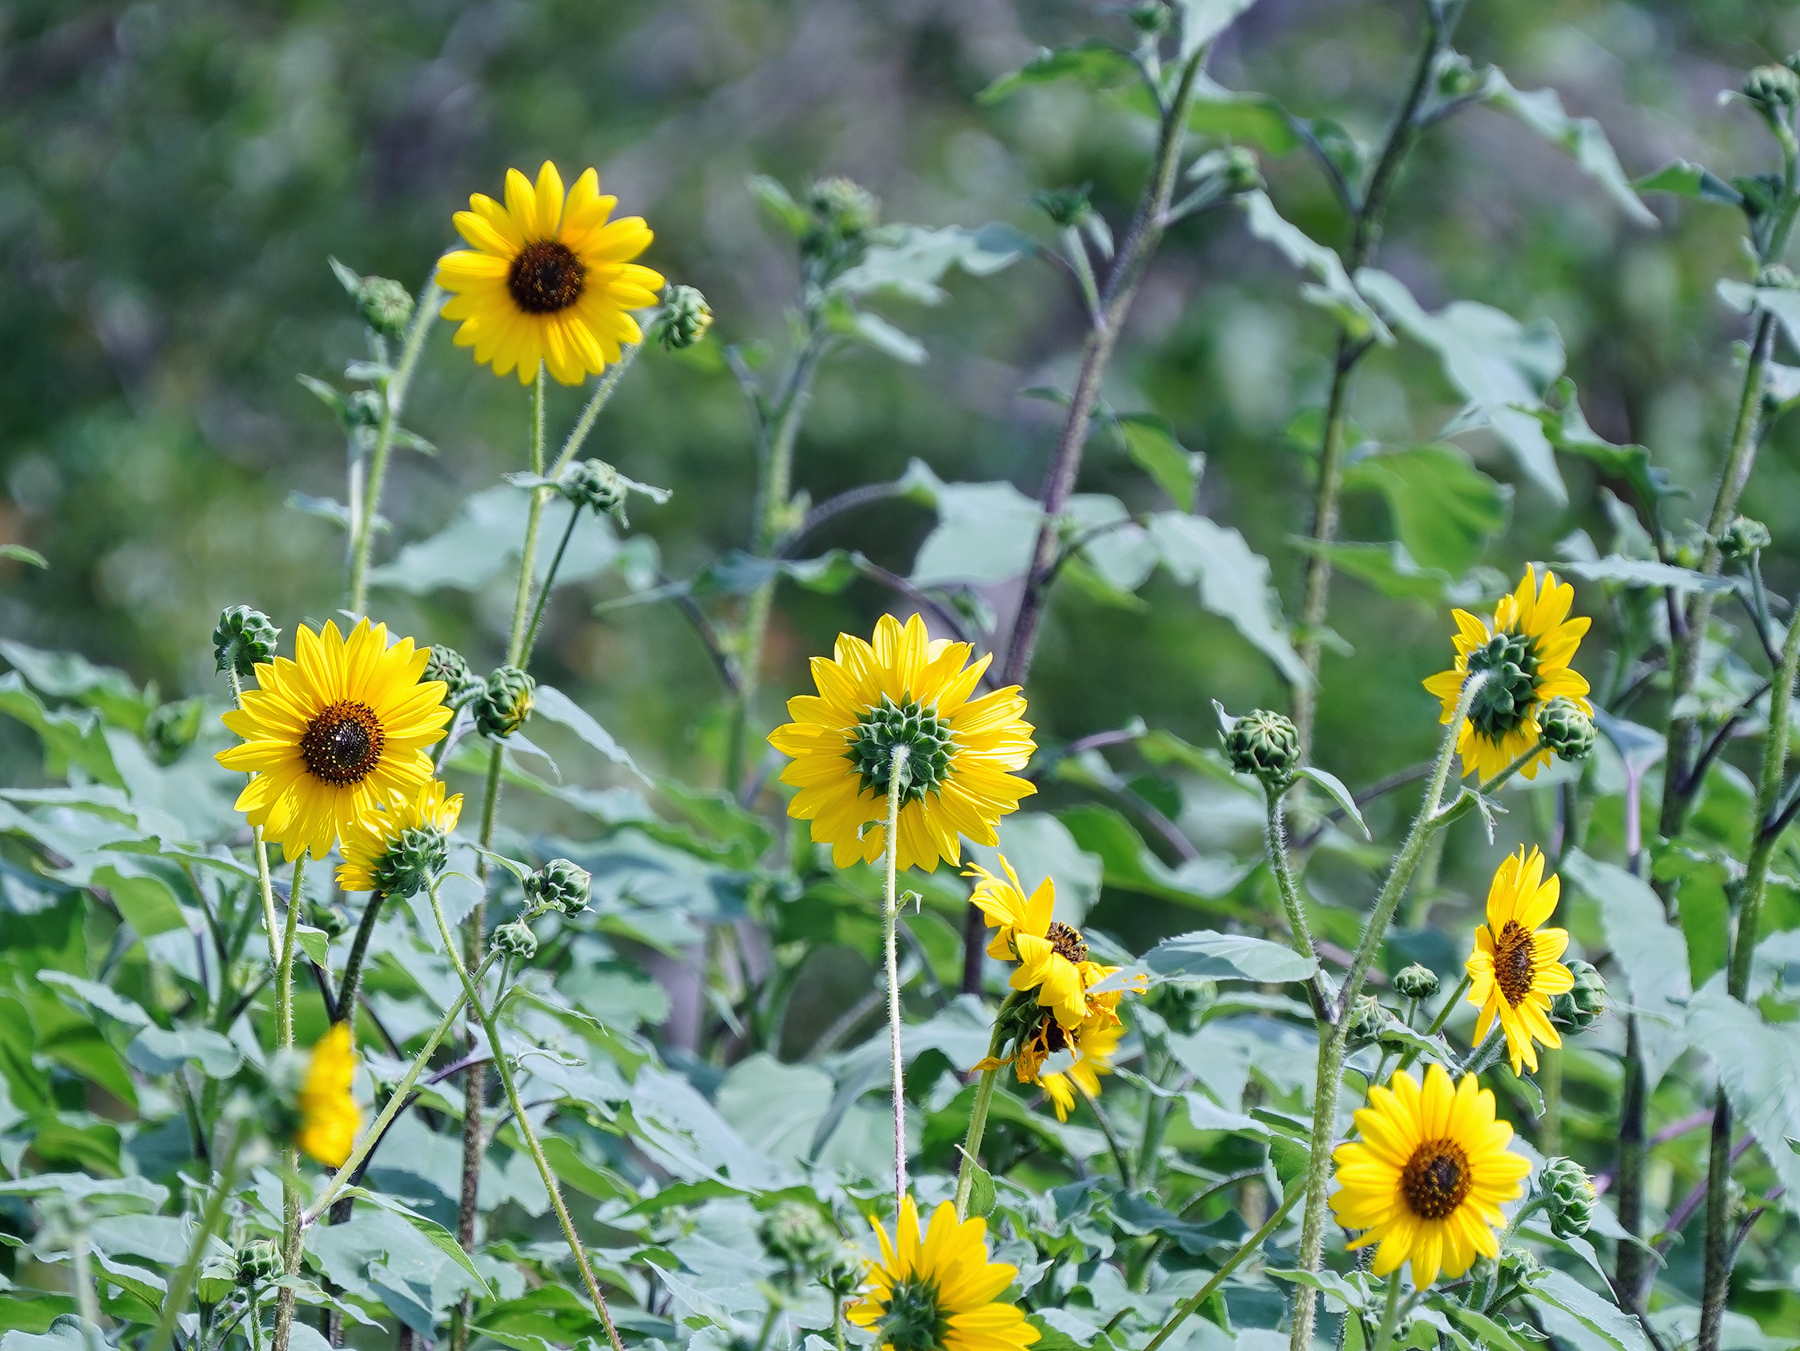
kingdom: Plantae
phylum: Tracheophyta
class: Magnoliopsida
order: Asterales
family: Asteraceae
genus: Helianthus
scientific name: Helianthus annuus
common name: Sunflower
